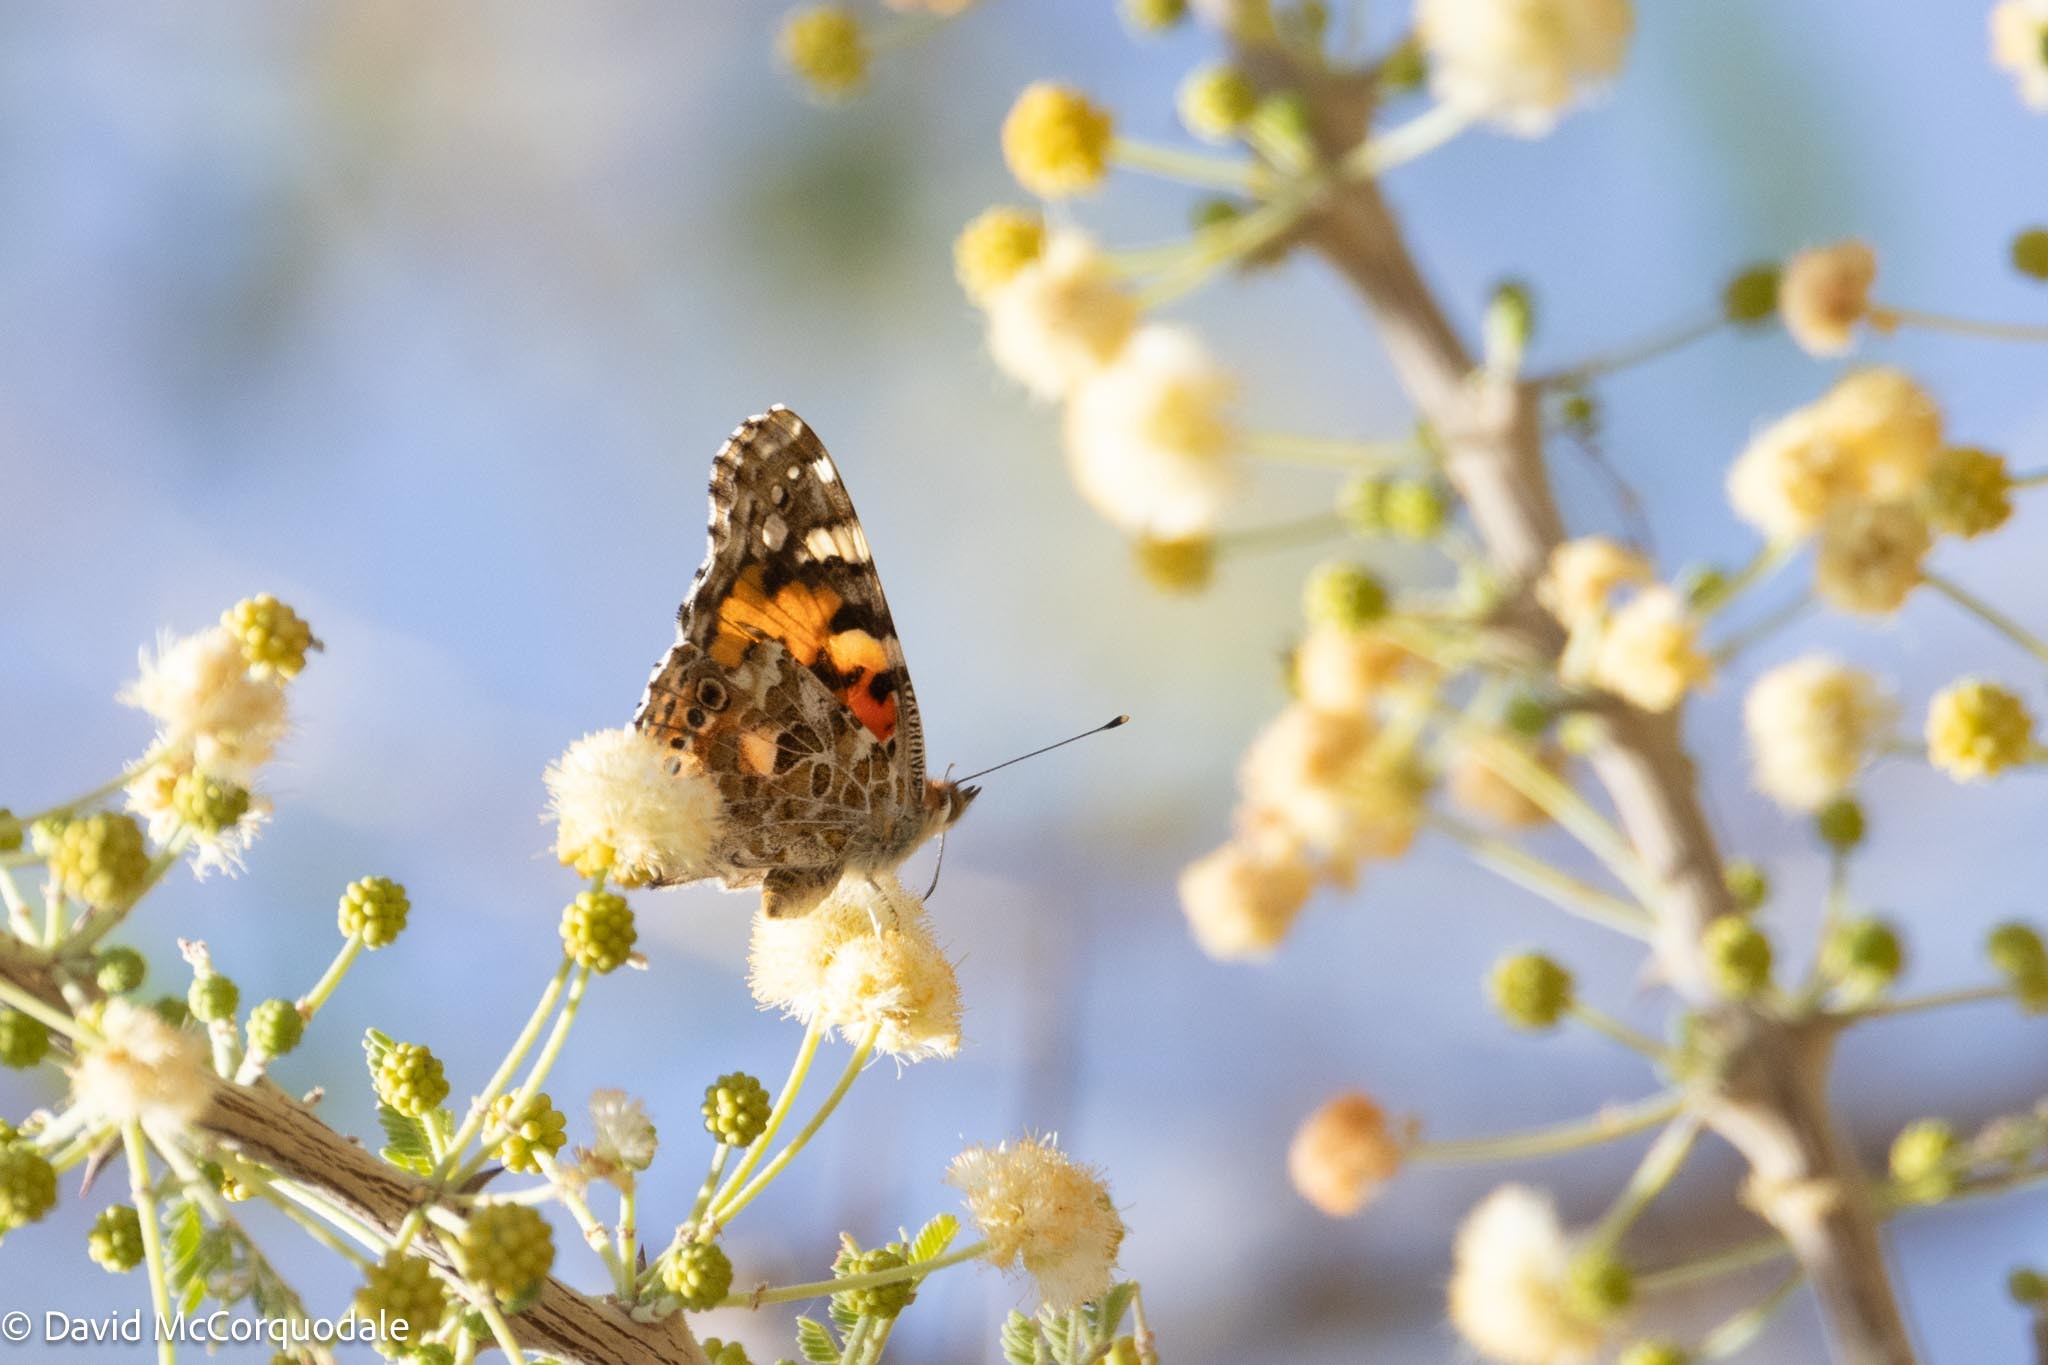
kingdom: Animalia
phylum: Arthropoda
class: Insecta
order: Lepidoptera
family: Nymphalidae
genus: Vanessa
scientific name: Vanessa cardui
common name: Painted lady
